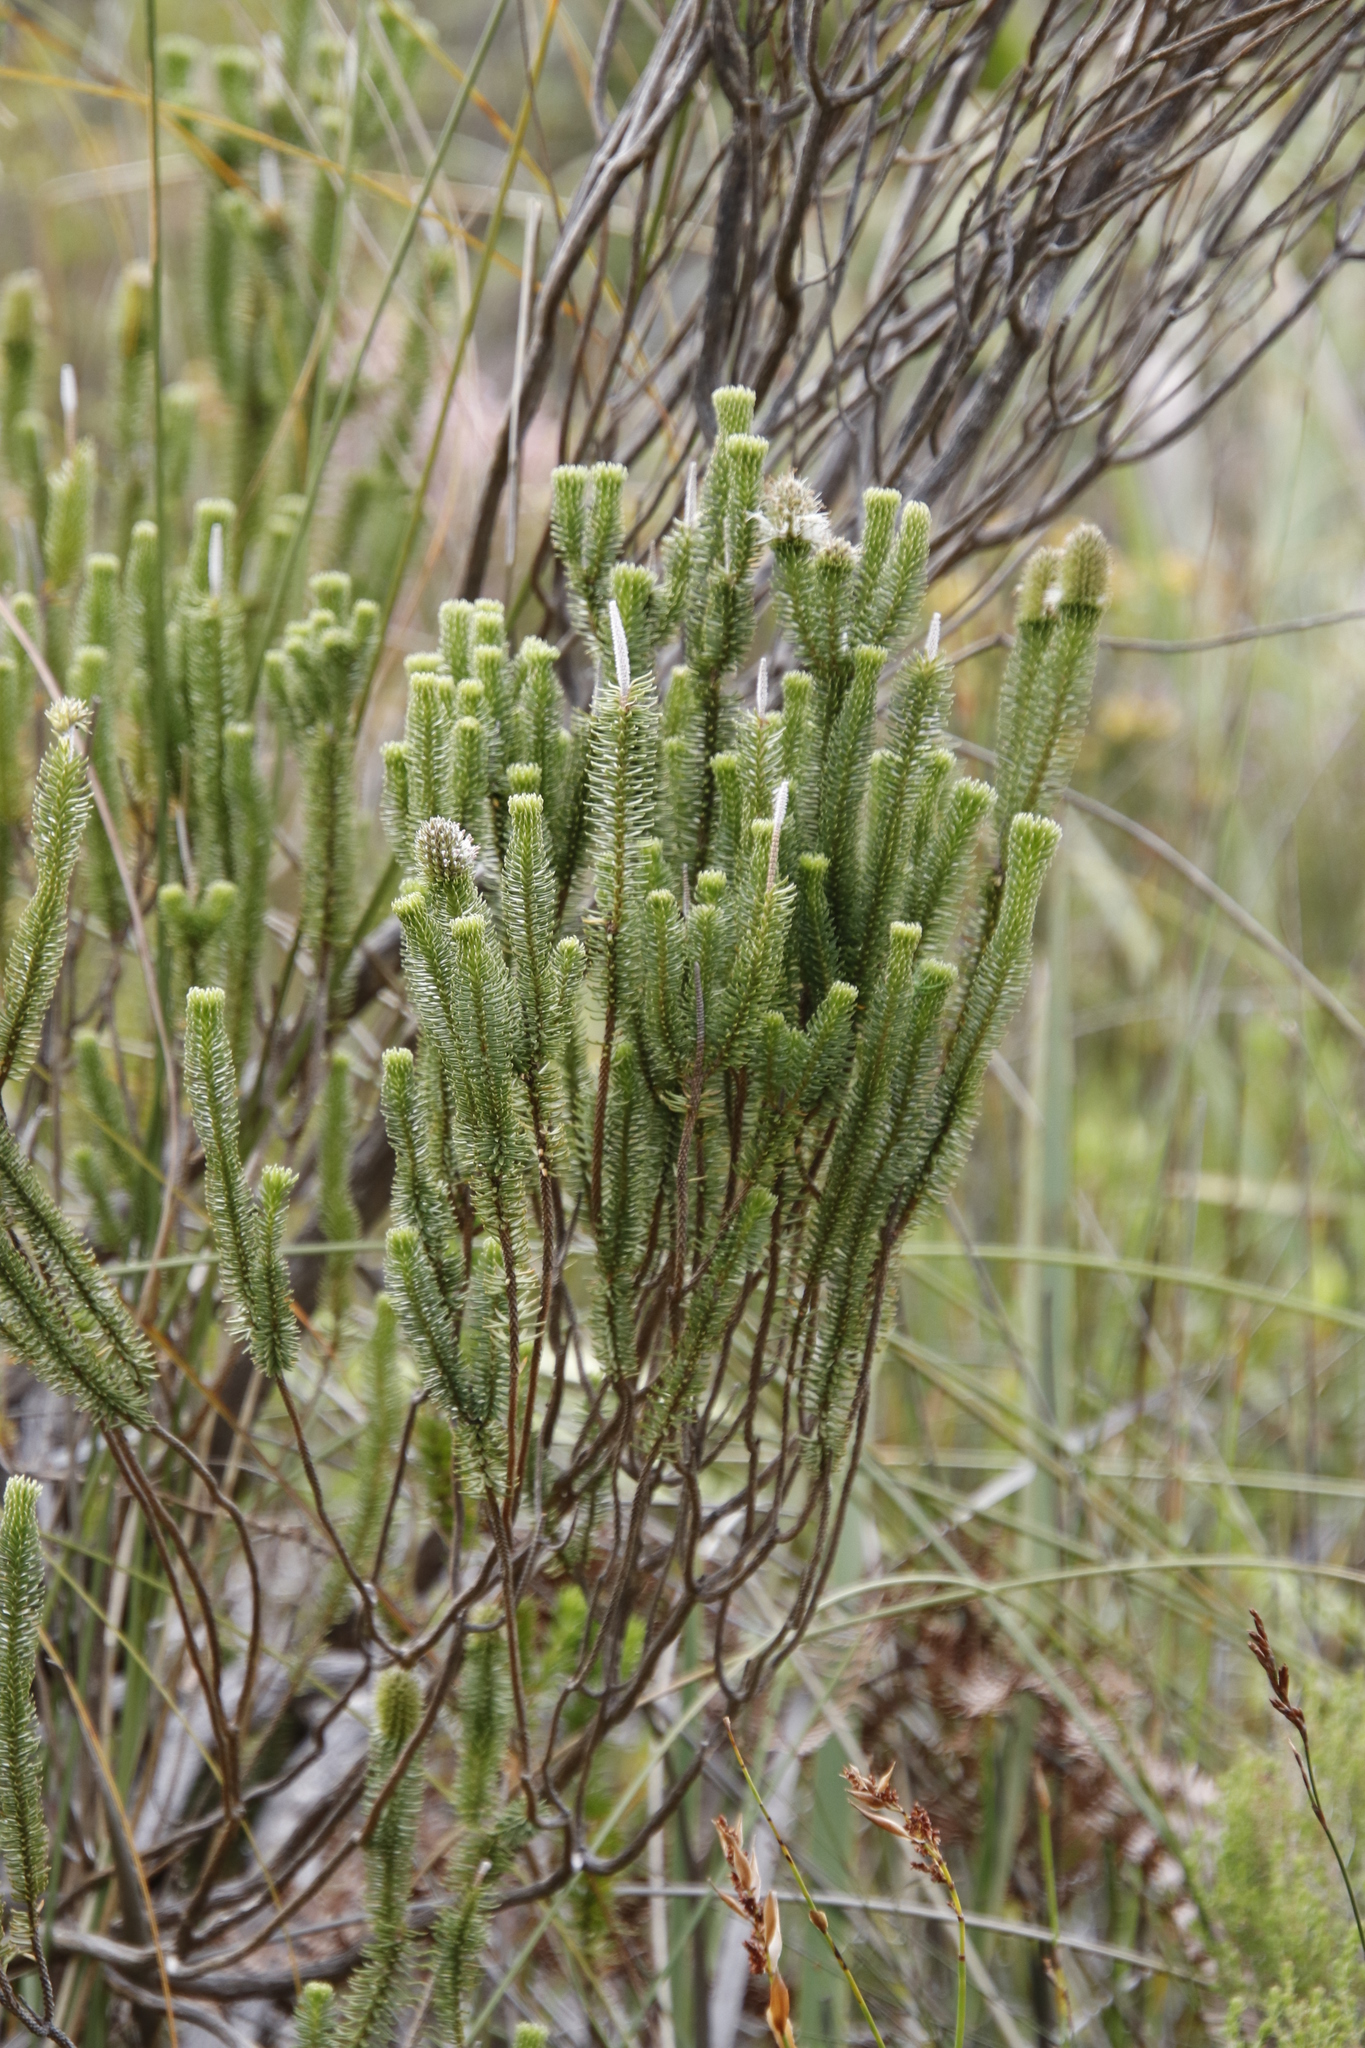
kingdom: Plantae
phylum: Tracheophyta
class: Magnoliopsida
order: Lamiales
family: Stilbaceae
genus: Stilbe
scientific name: Stilbe vestita
